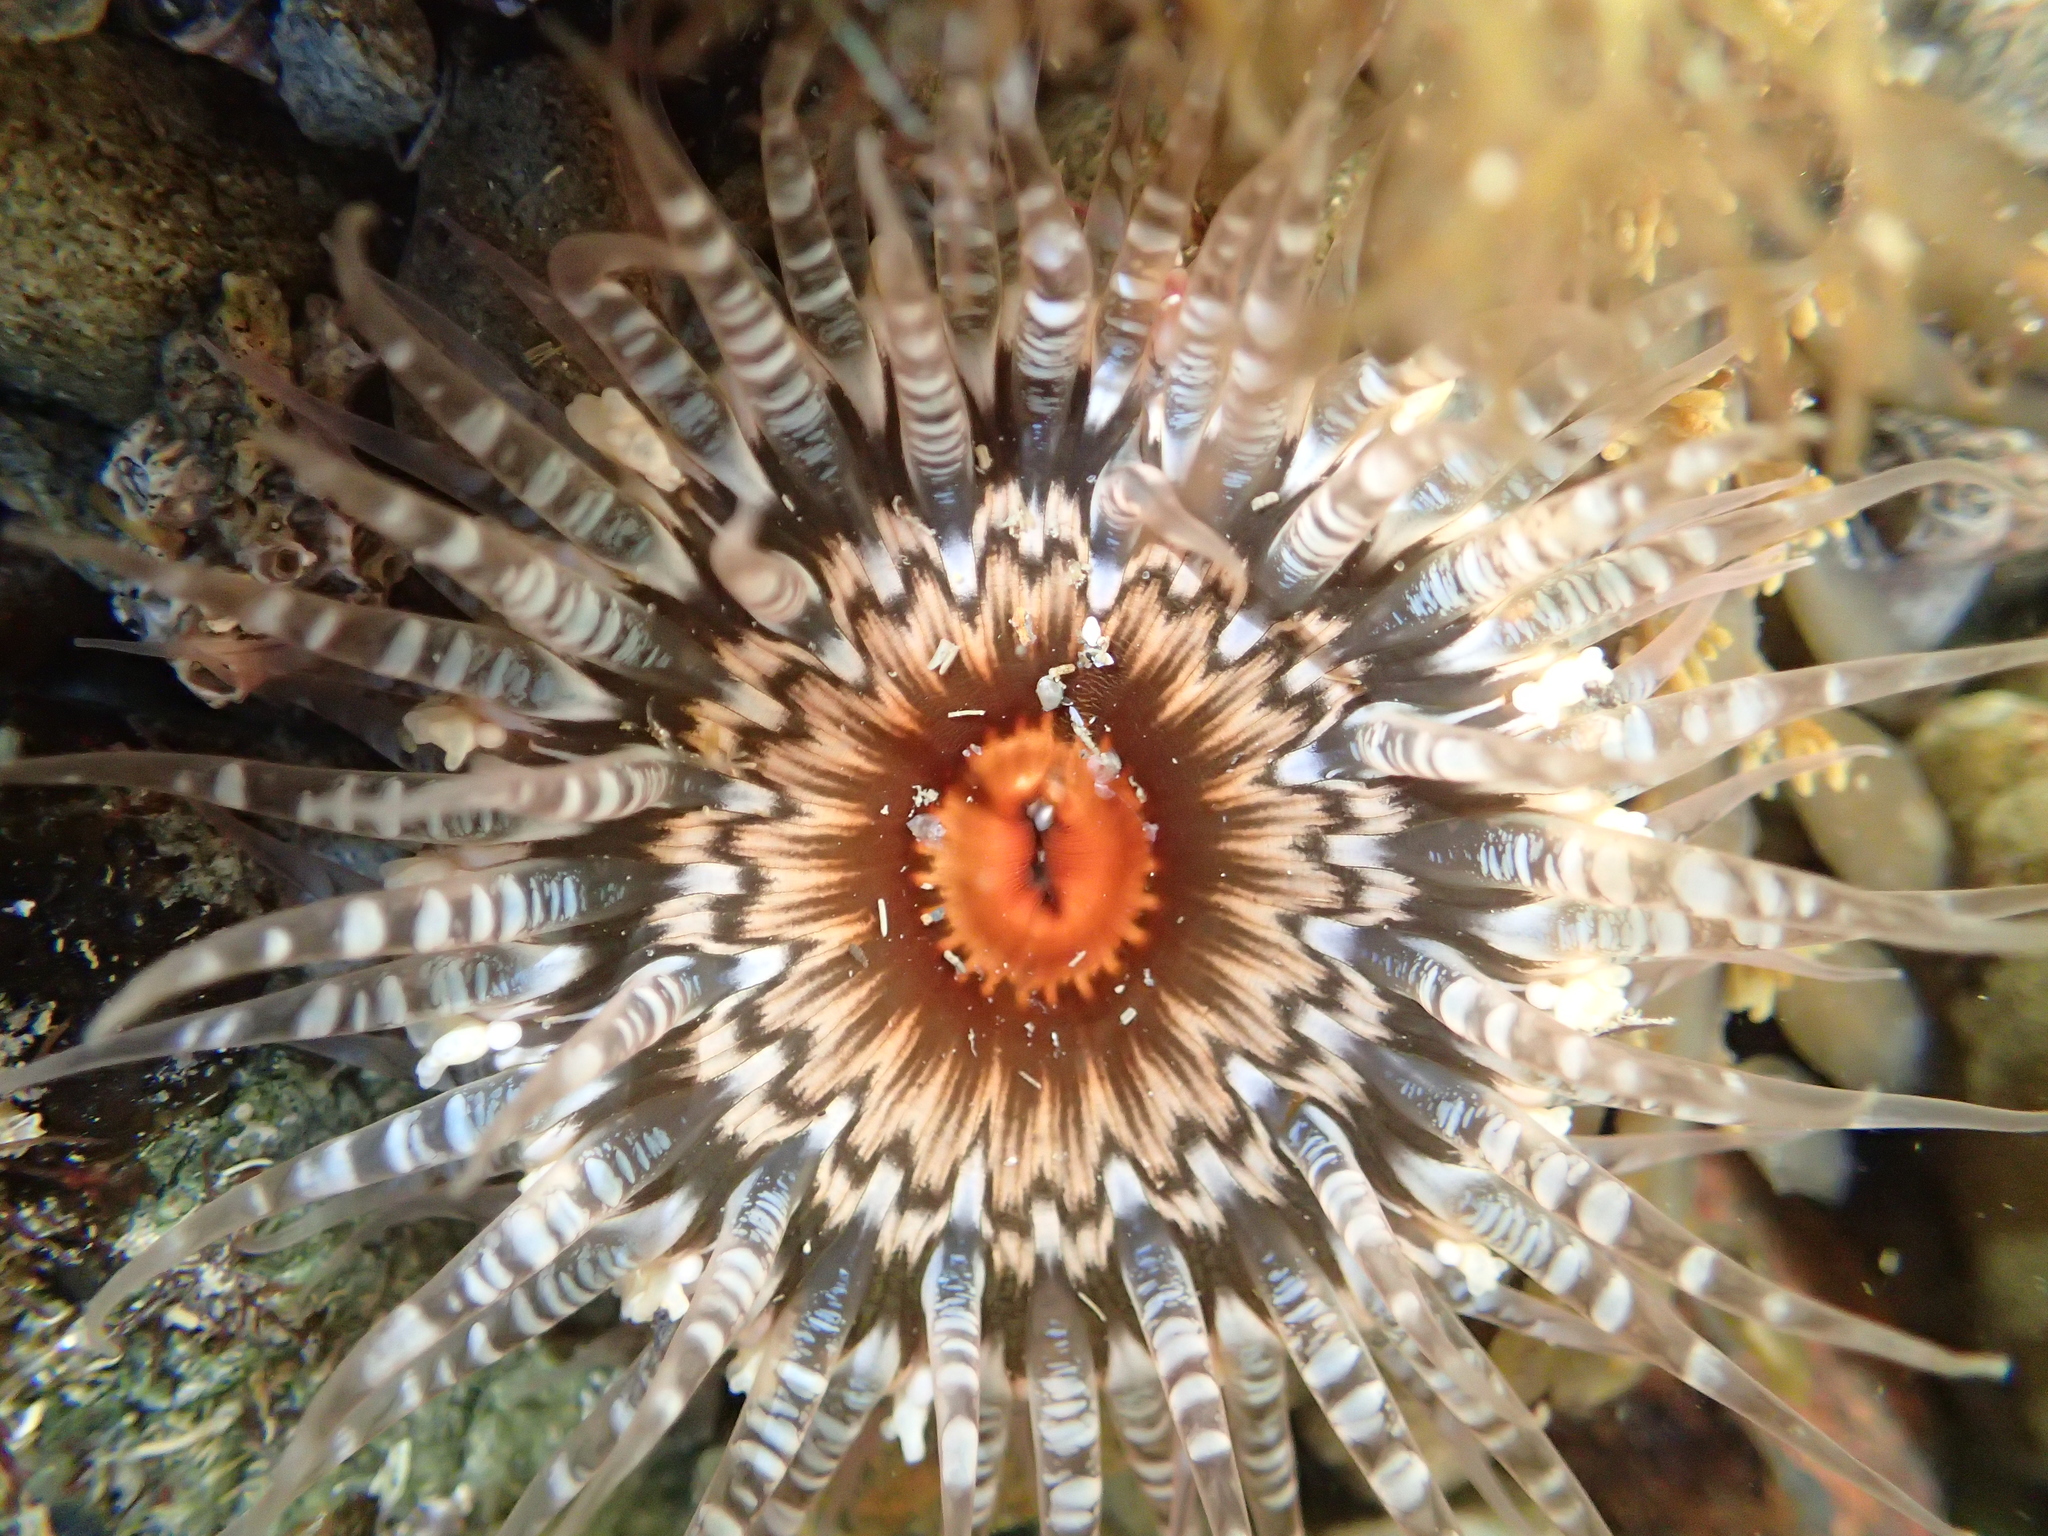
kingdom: Animalia
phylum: Cnidaria
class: Anthozoa
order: Actiniaria
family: Actiniidae
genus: Oulactis
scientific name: Oulactis muscosa
